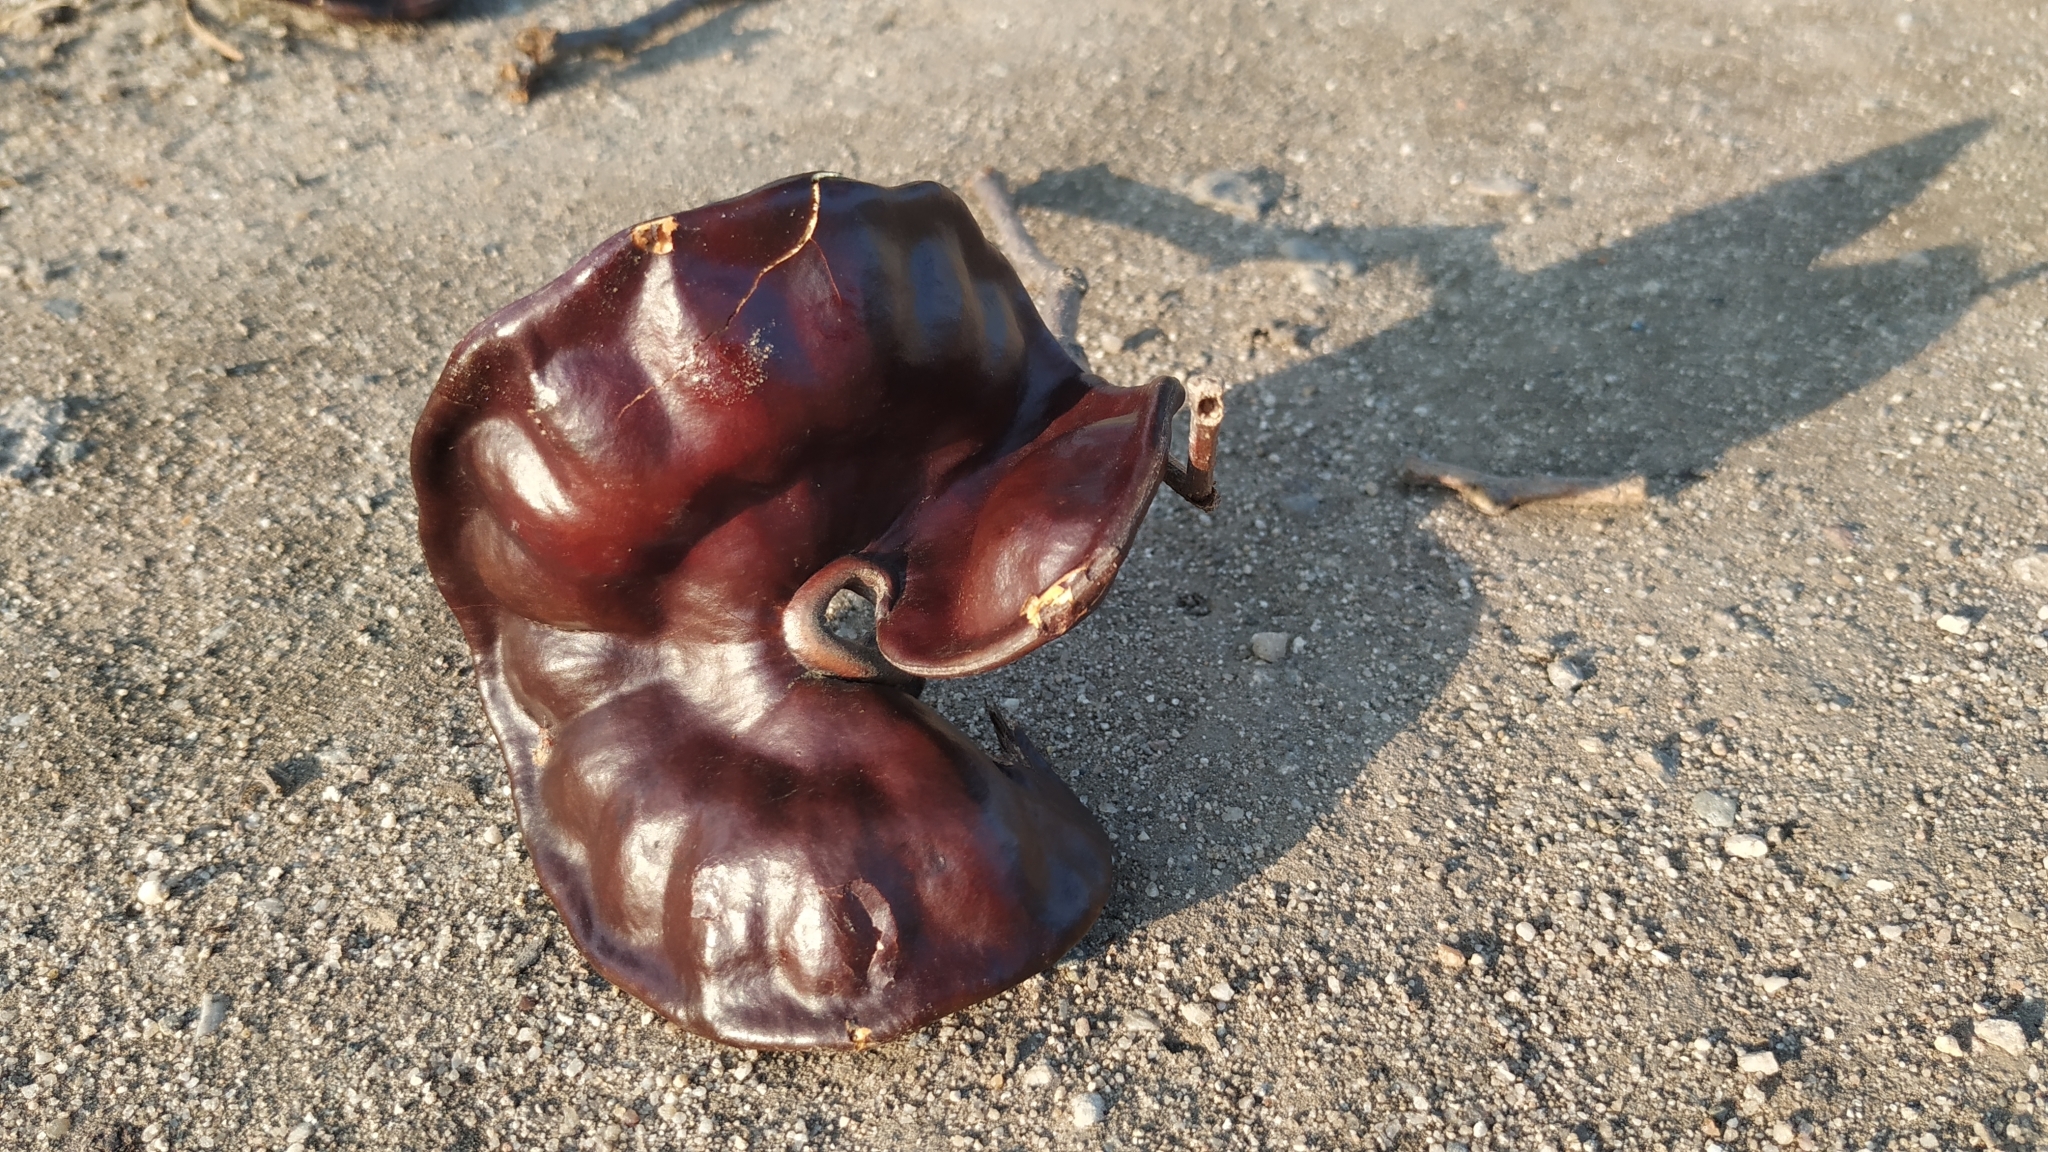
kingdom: Plantae
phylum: Tracheophyta
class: Magnoliopsida
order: Fabales
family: Fabaceae
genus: Enterolobium
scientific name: Enterolobium cyclocarpum
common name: Ear tree
